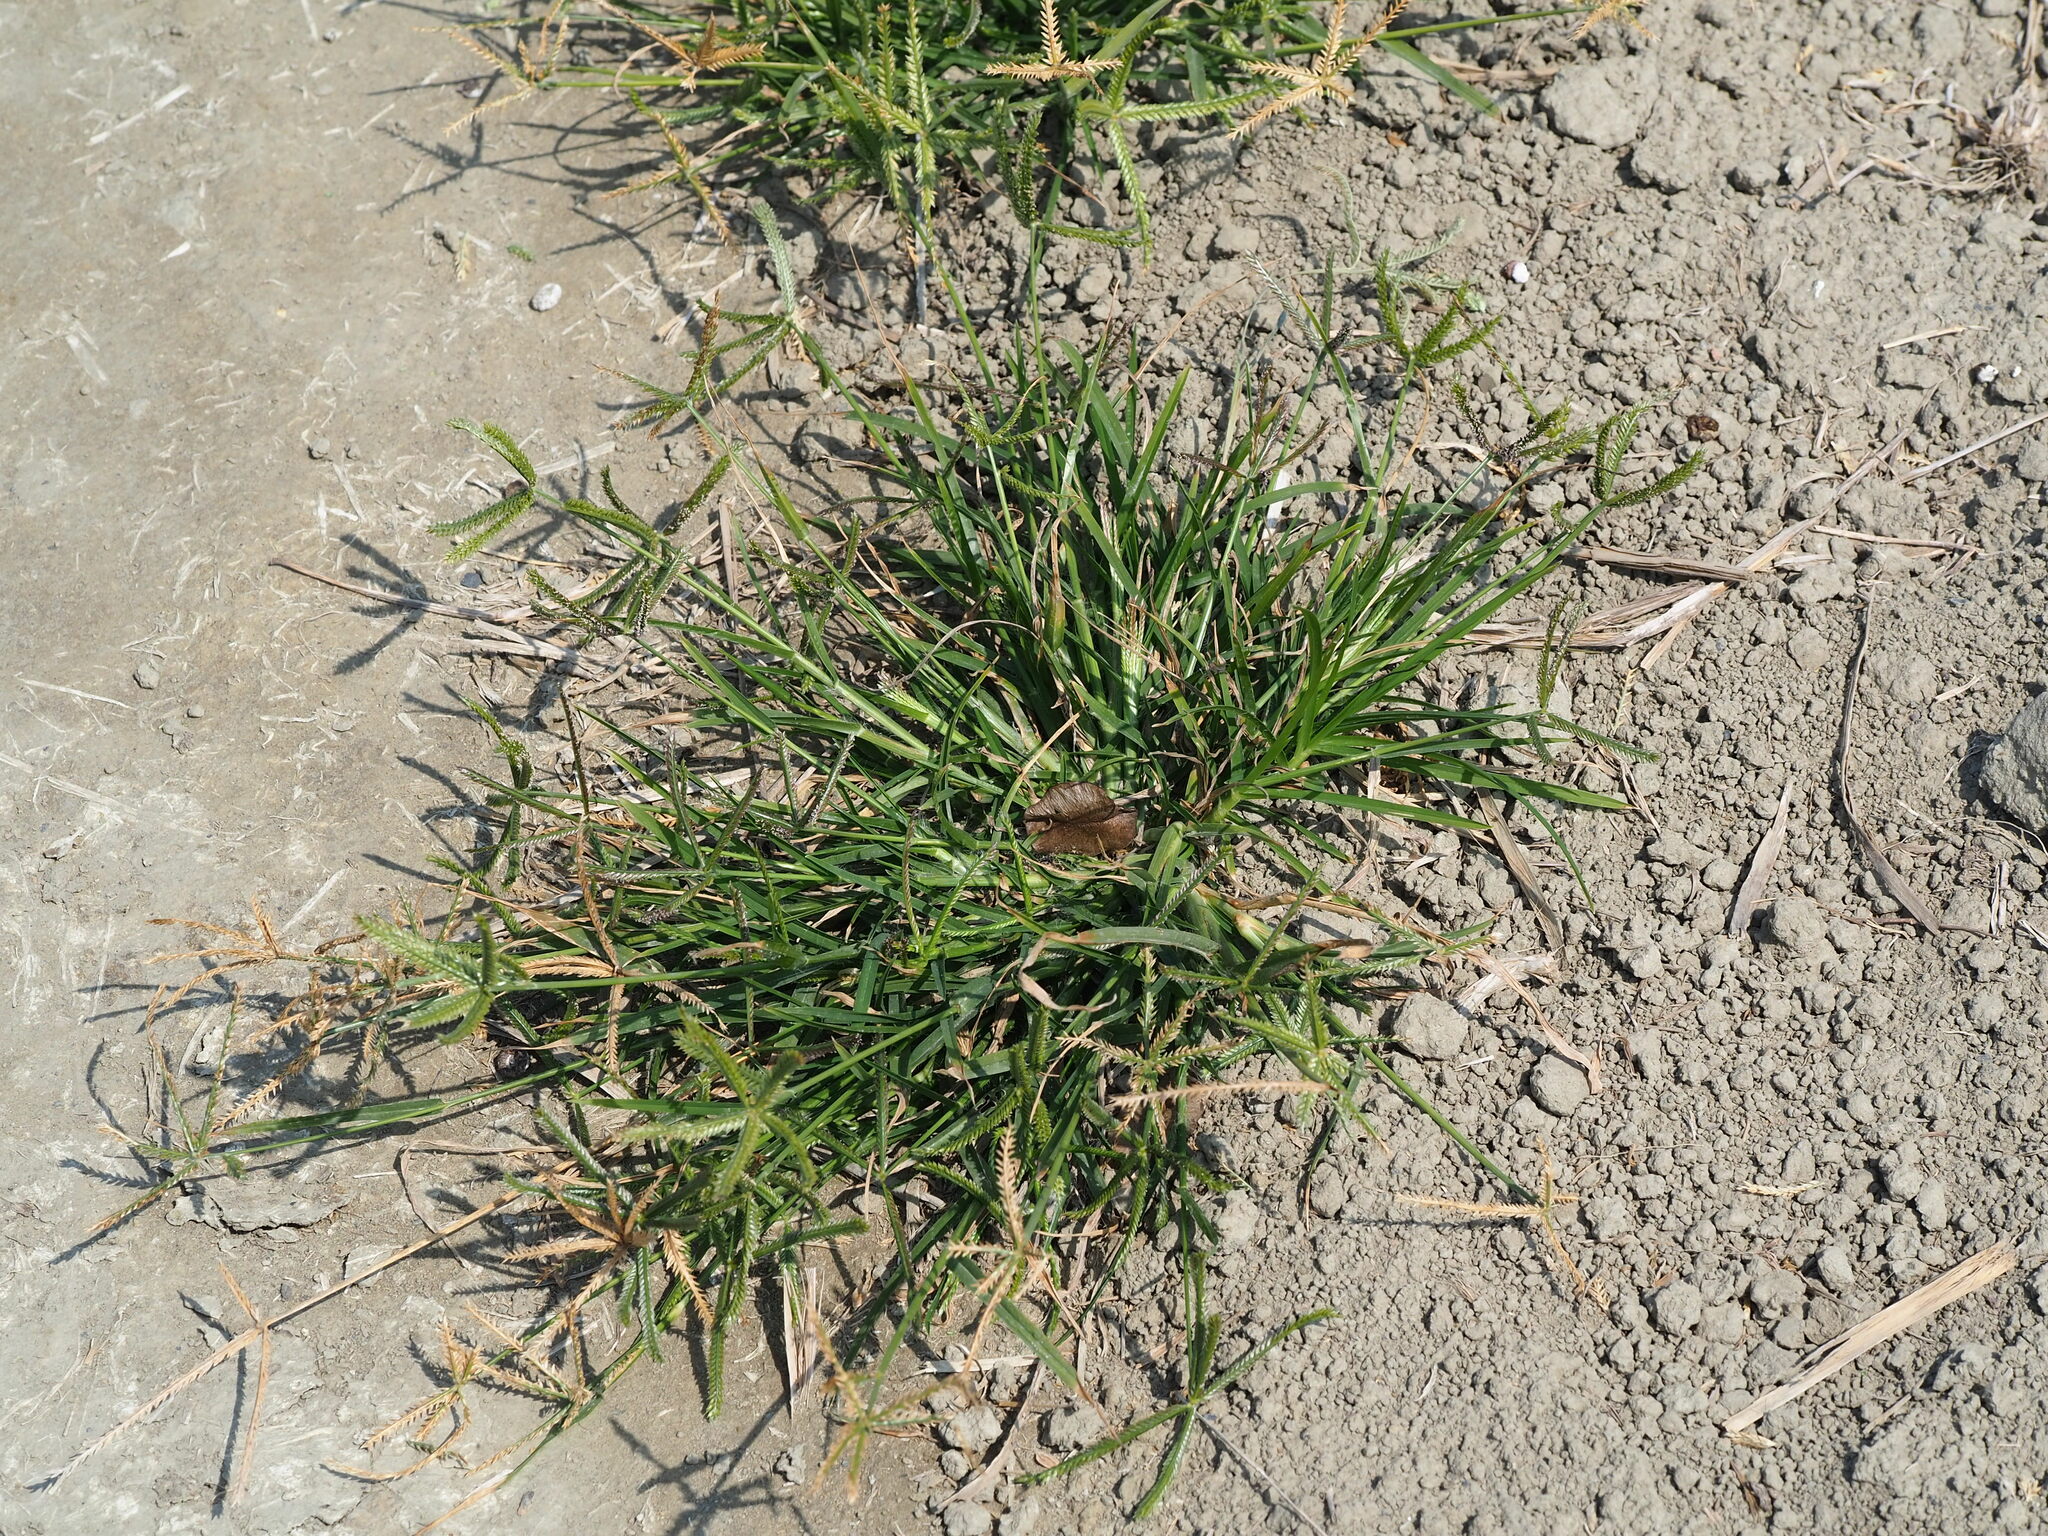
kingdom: Plantae
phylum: Tracheophyta
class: Liliopsida
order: Poales
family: Poaceae
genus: Eleusine
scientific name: Eleusine indica
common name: Yard-grass
